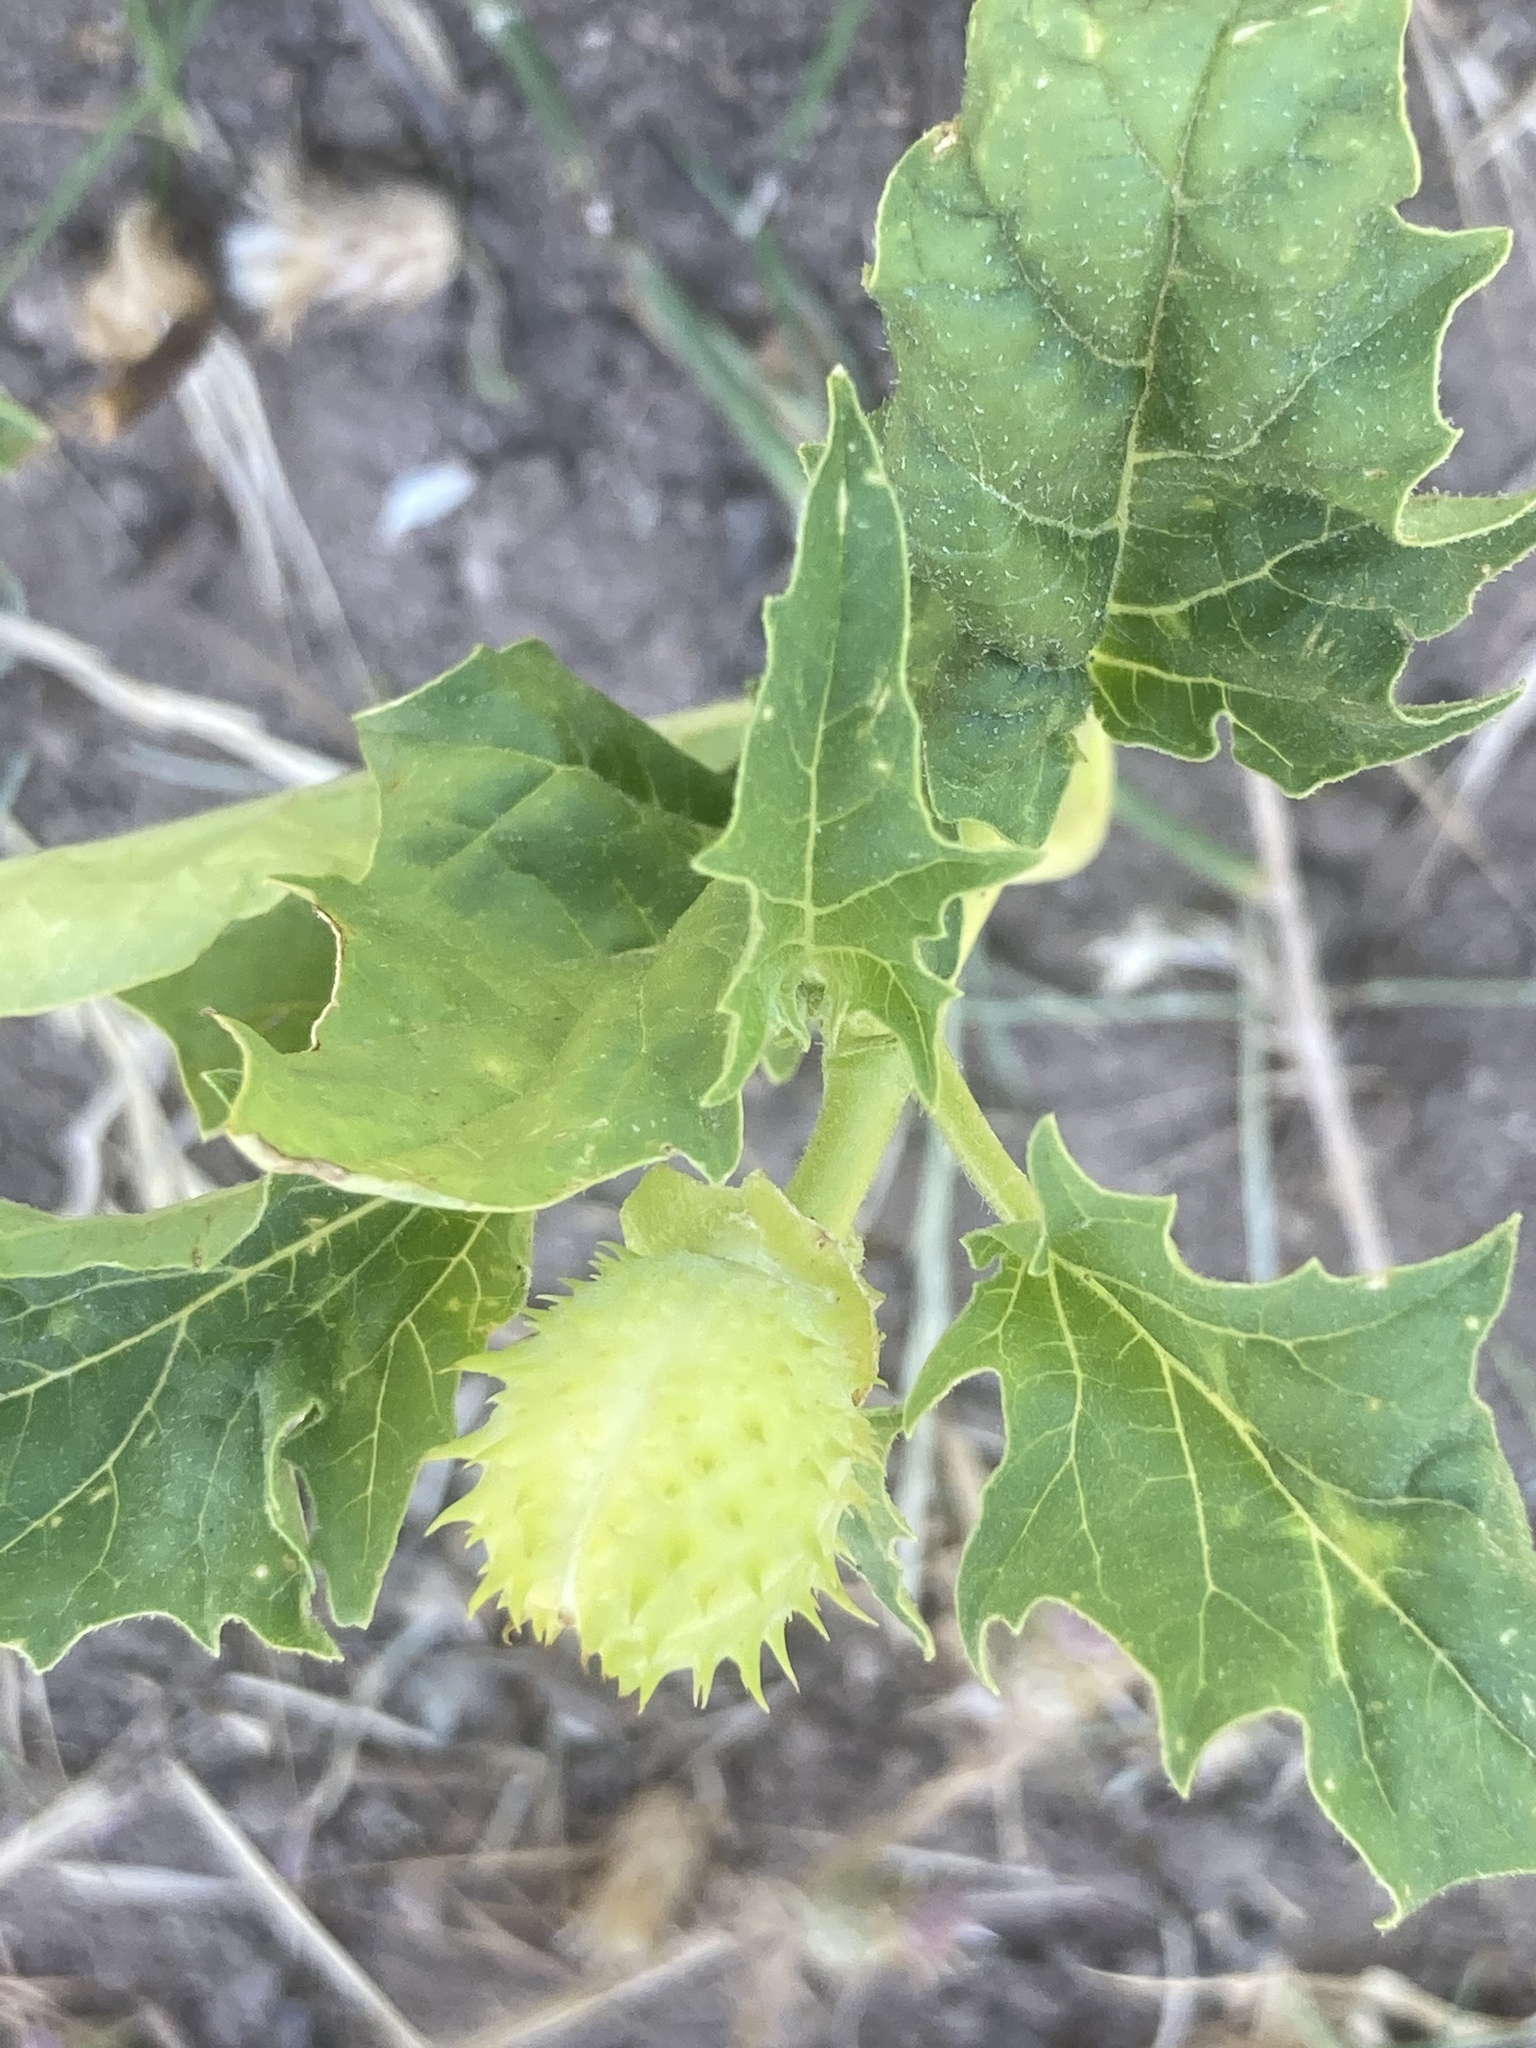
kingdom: Plantae
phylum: Tracheophyta
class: Magnoliopsida
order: Solanales
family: Solanaceae
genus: Datura
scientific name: Datura stramonium
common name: Thorn-apple
